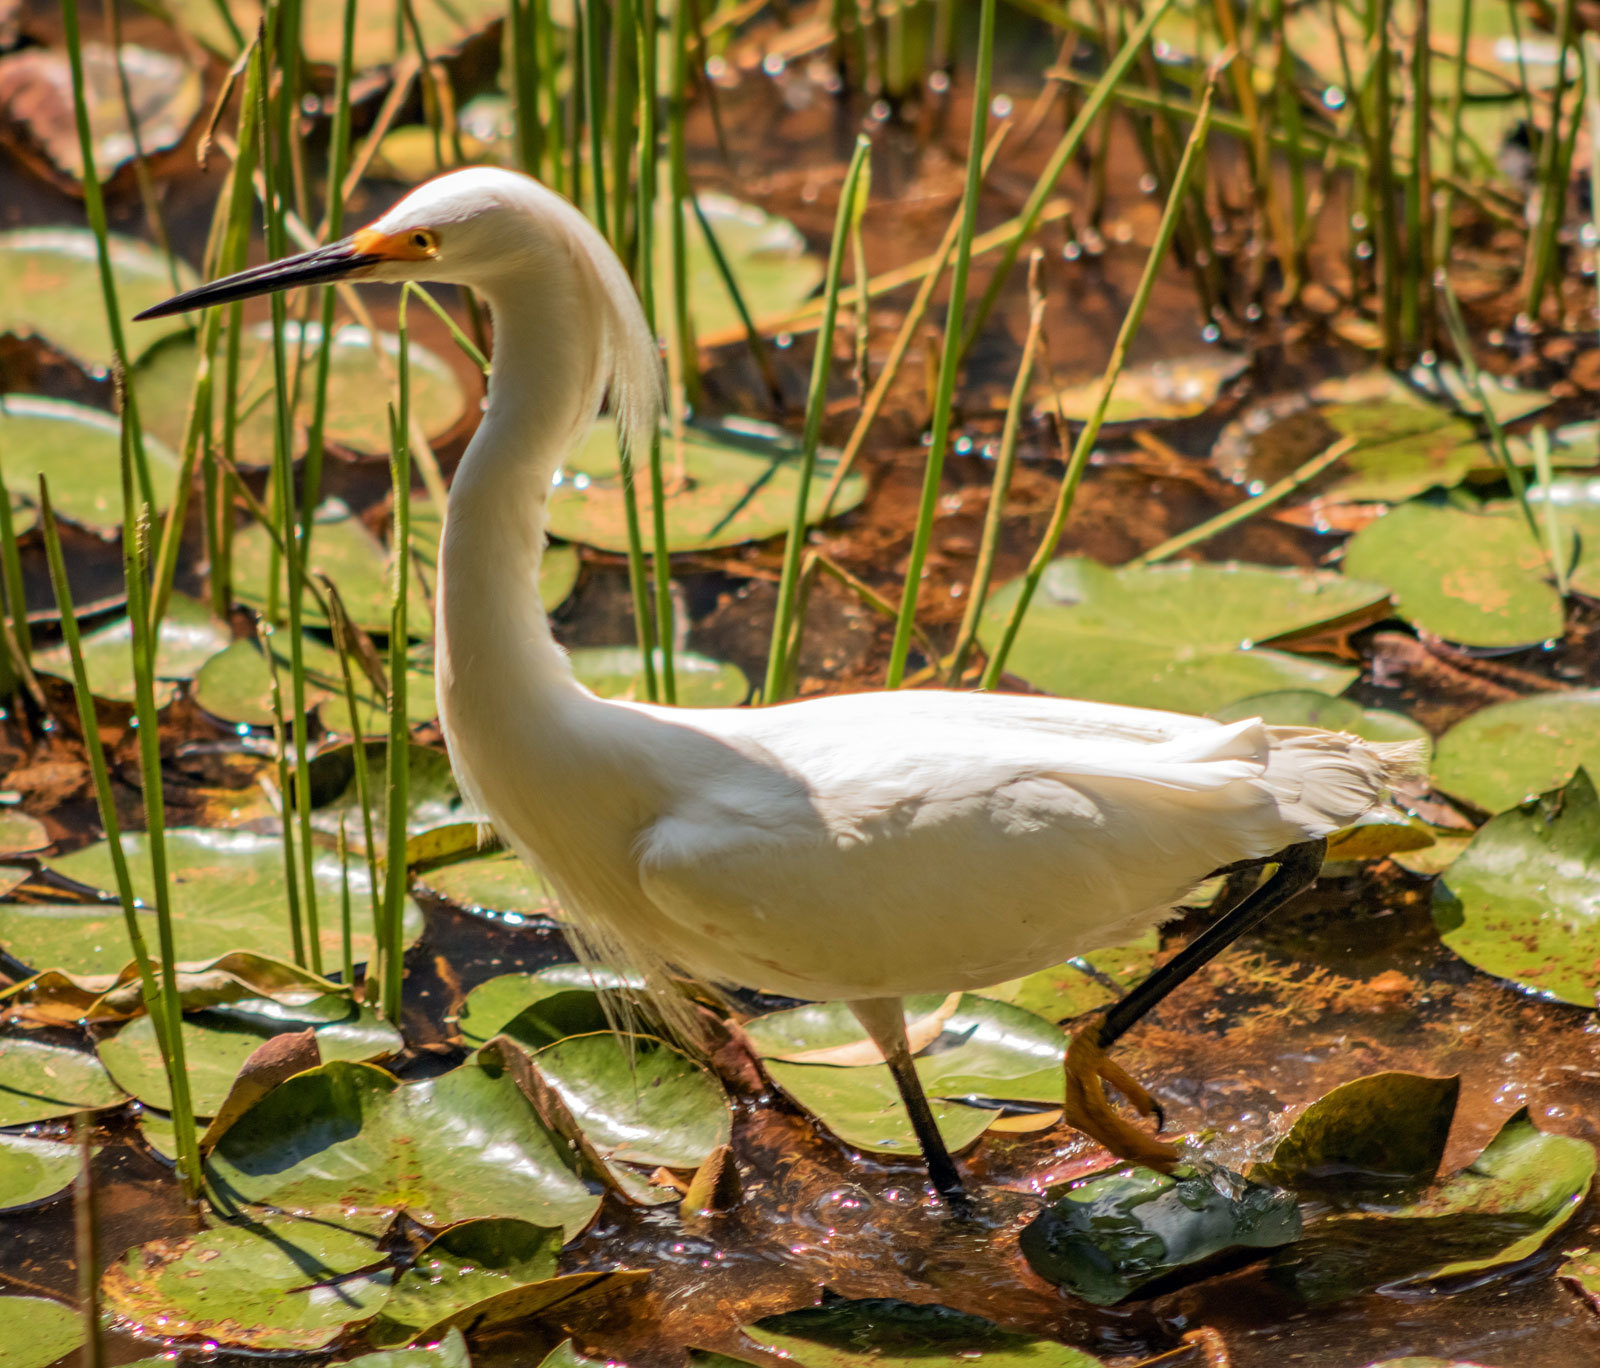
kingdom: Animalia
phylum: Chordata
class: Aves
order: Pelecaniformes
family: Ardeidae
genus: Egretta
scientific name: Egretta thula
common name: Snowy egret
